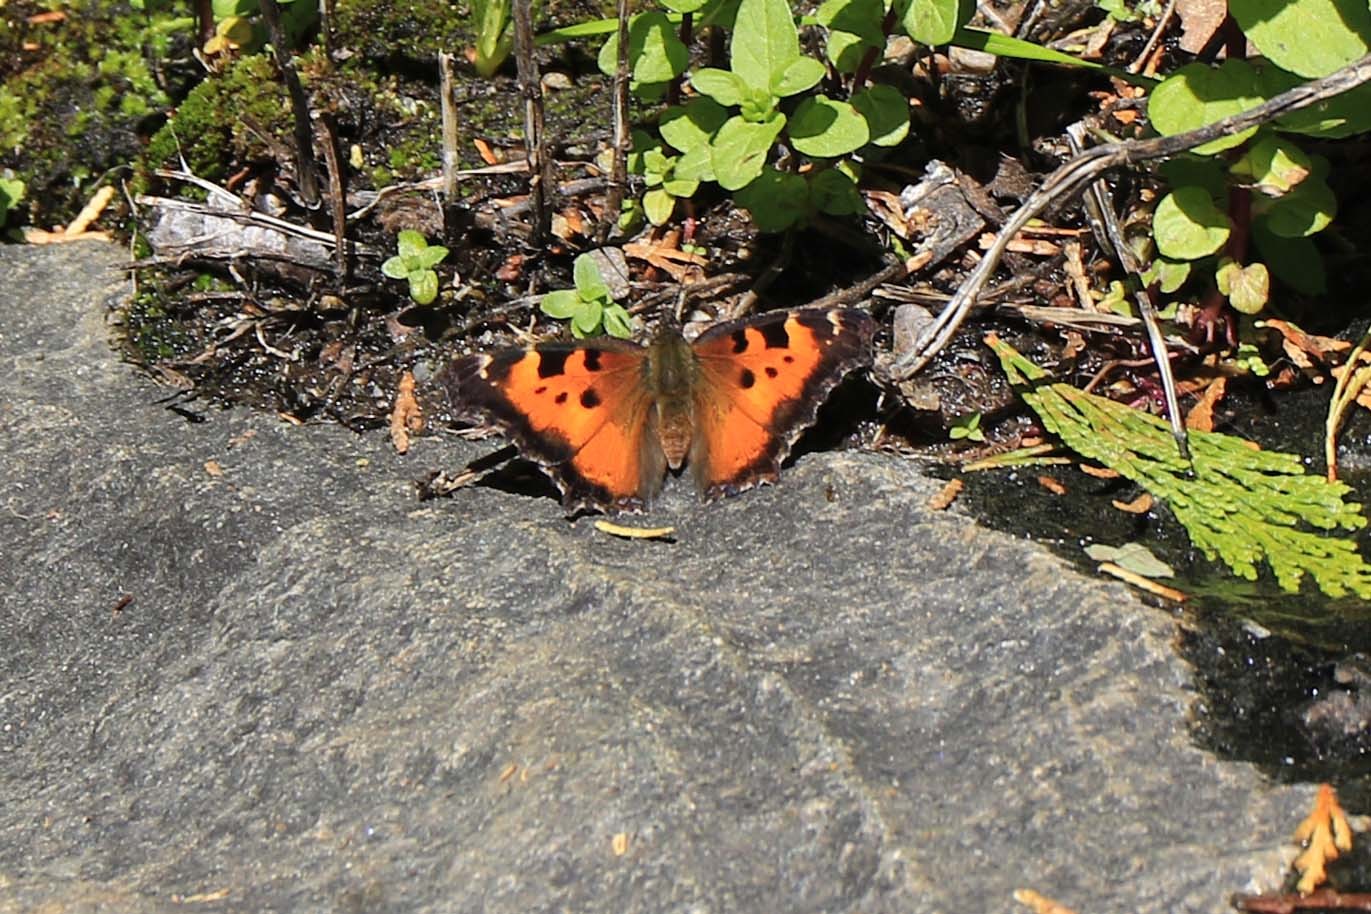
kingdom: Animalia
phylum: Arthropoda
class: Insecta
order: Lepidoptera
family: Nymphalidae
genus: Nymphalis
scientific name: Nymphalis californica
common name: California tortoiseshell
